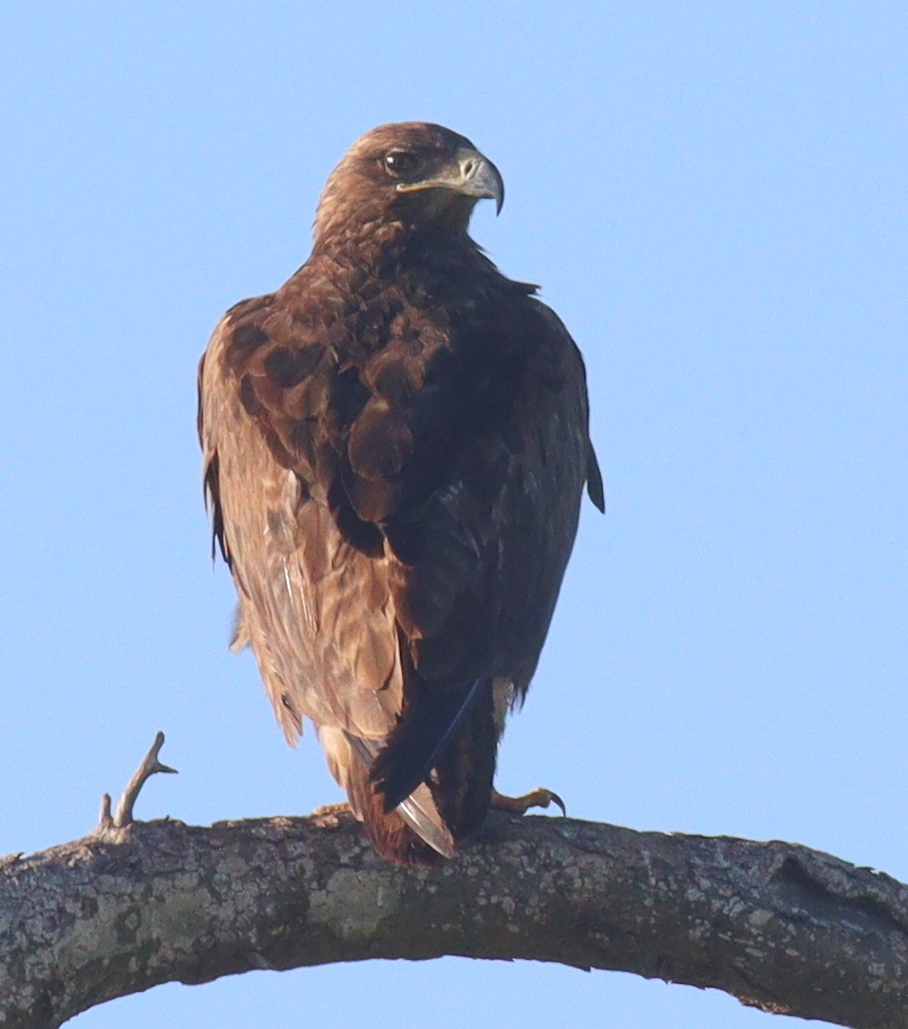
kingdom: Animalia
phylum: Chordata
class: Aves
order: Accipitriformes
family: Accipitridae
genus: Aquila
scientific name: Aquila nipalensis
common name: Steppe eagle
